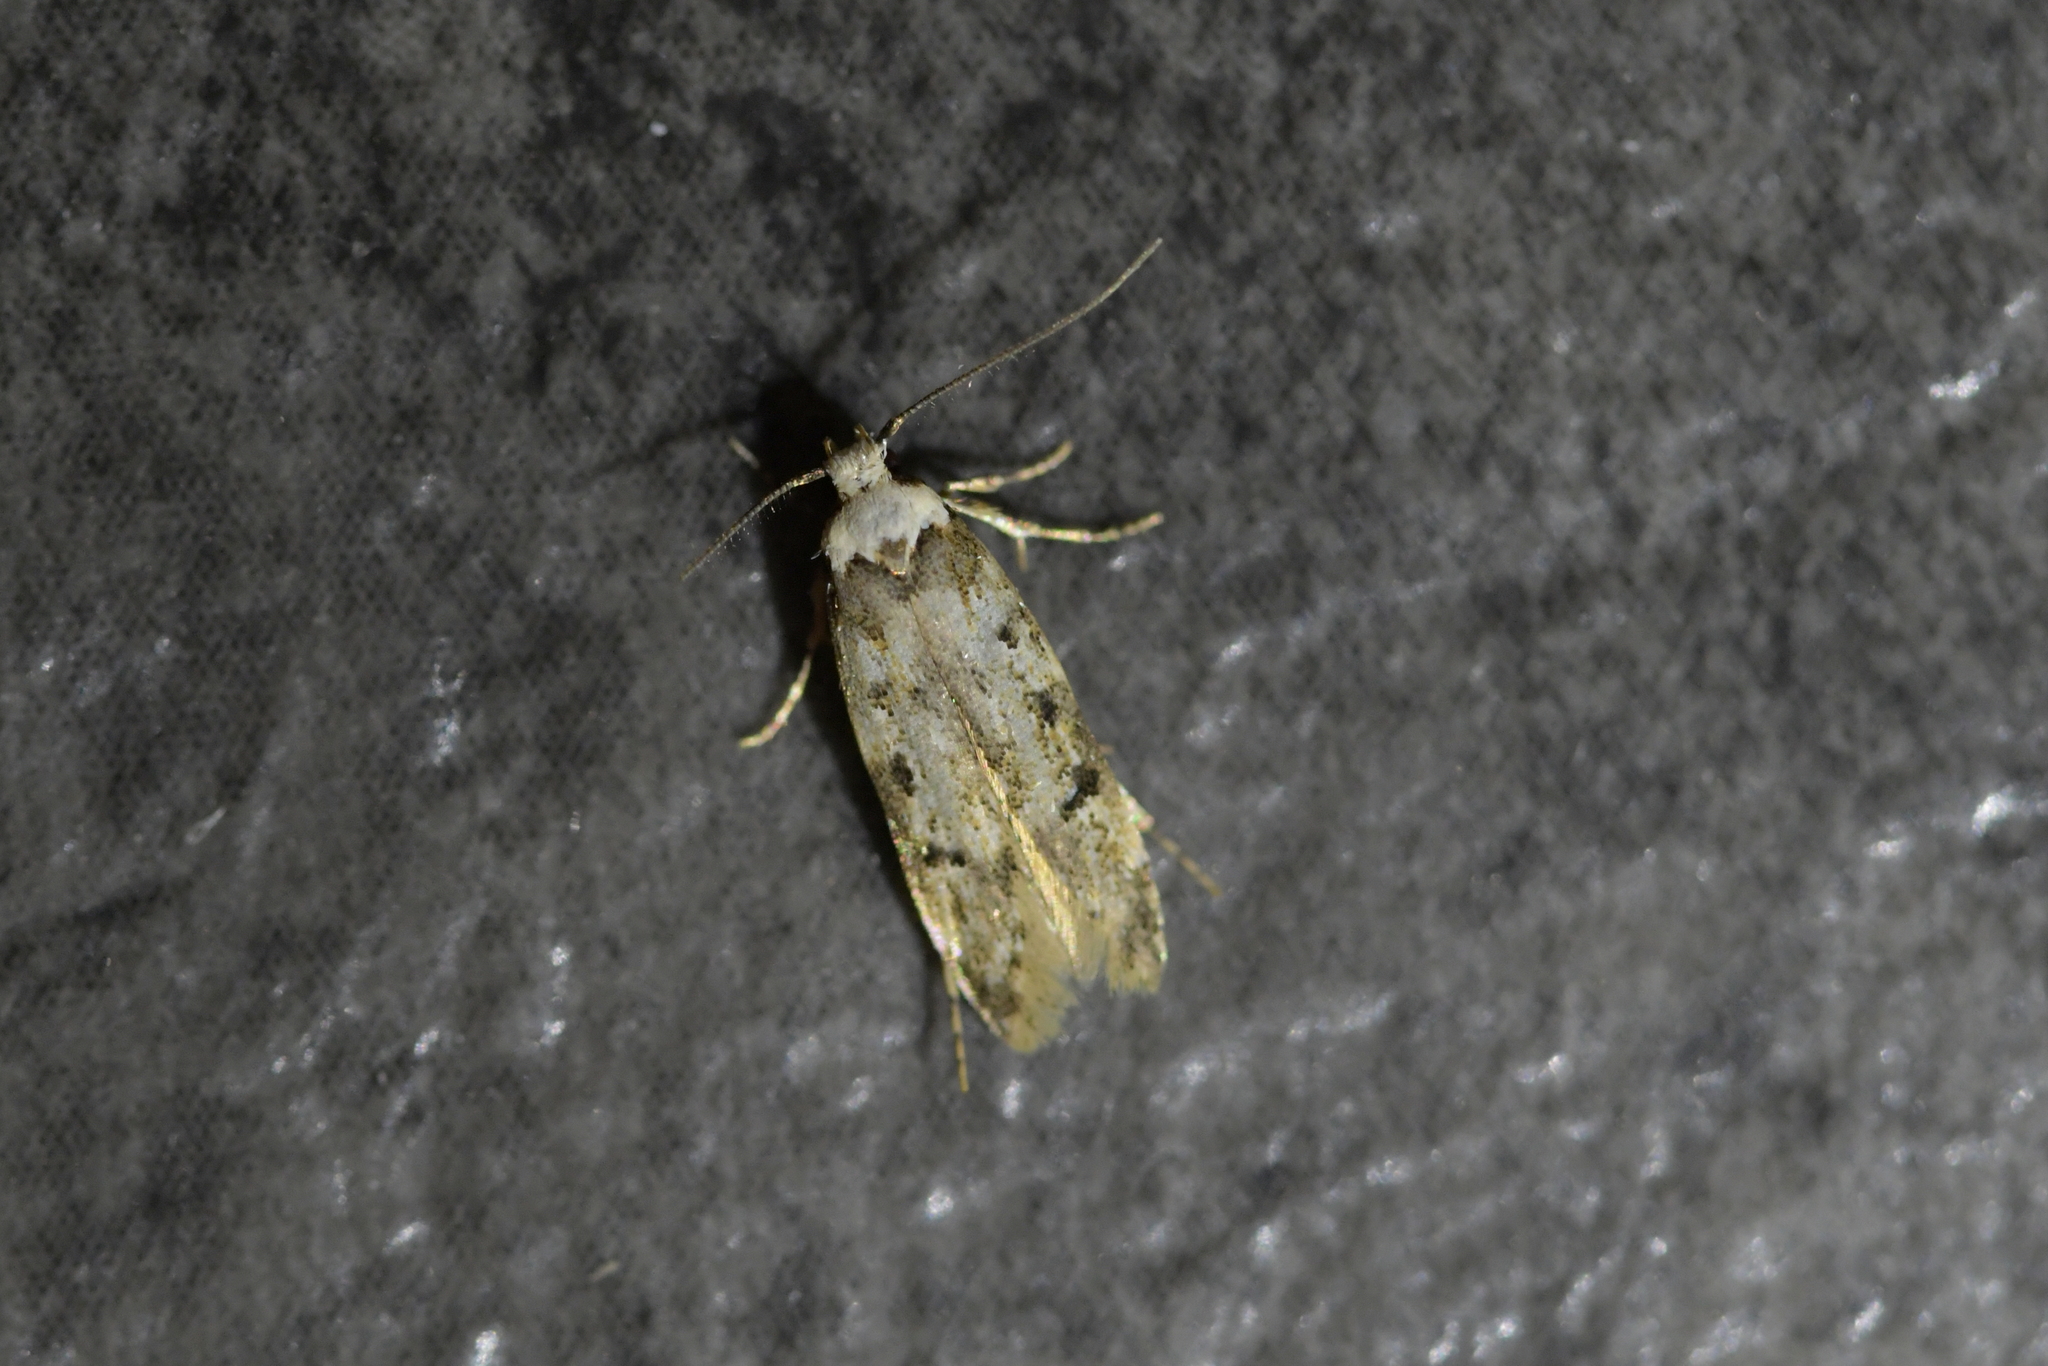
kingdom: Animalia
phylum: Arthropoda
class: Insecta
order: Lepidoptera
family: Oecophoridae
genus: Endrosis
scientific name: Endrosis sarcitrella
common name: White-shouldered house moth
